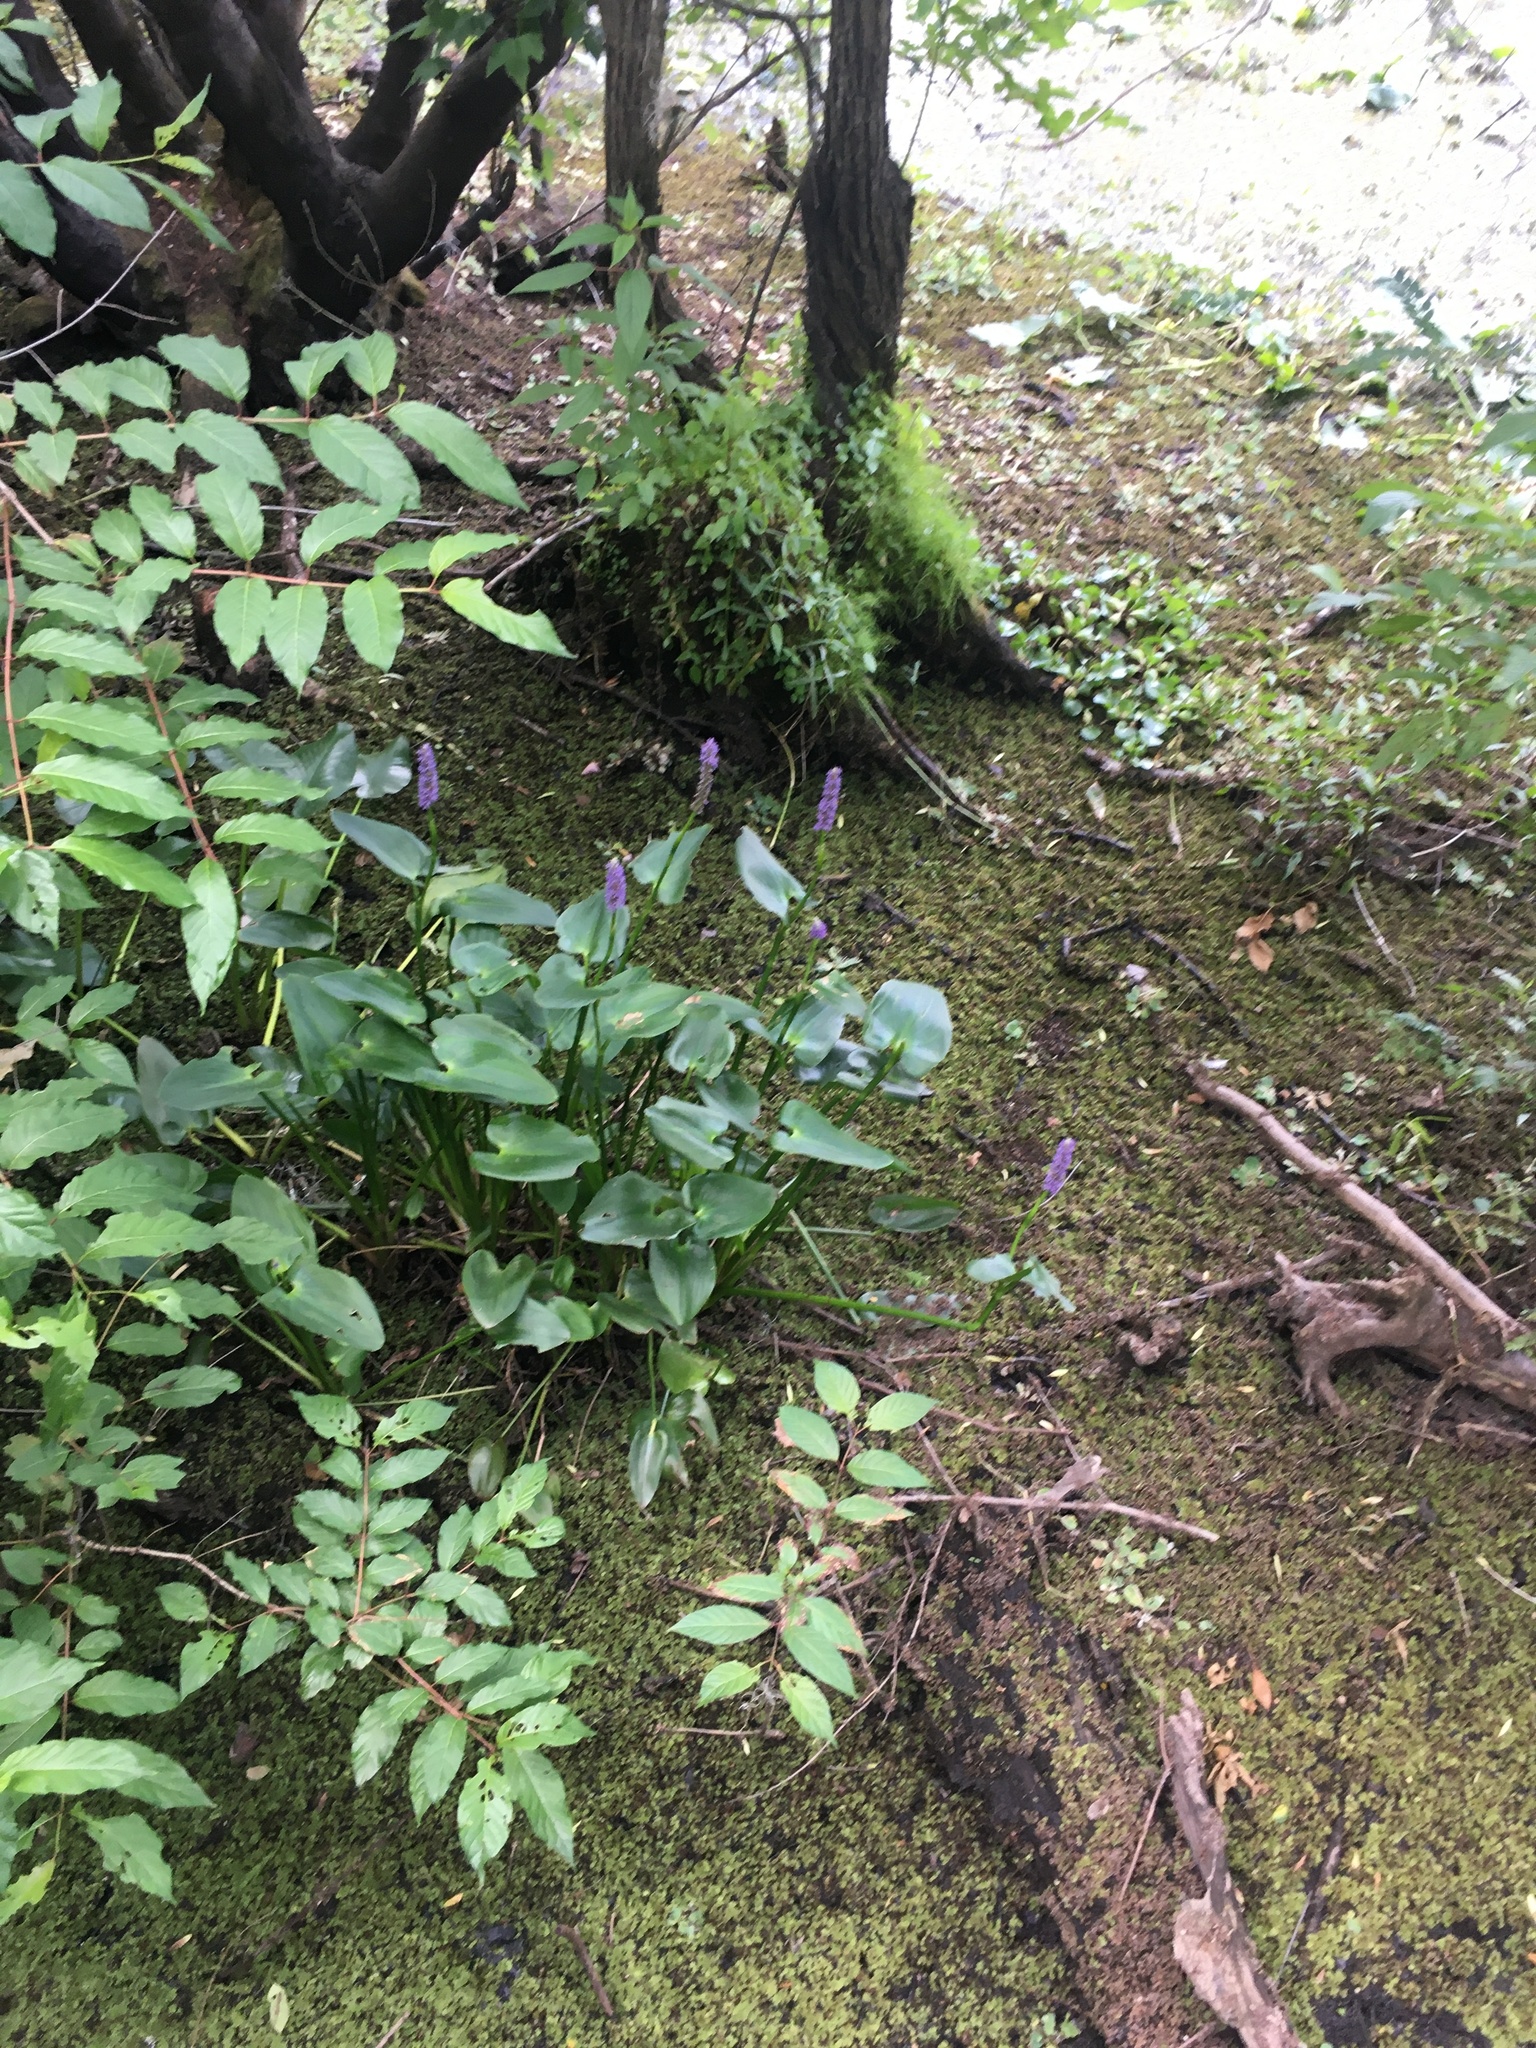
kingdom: Plantae
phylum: Tracheophyta
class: Liliopsida
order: Commelinales
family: Pontederiaceae
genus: Pontederia
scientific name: Pontederia cordata
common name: Pickerelweed
